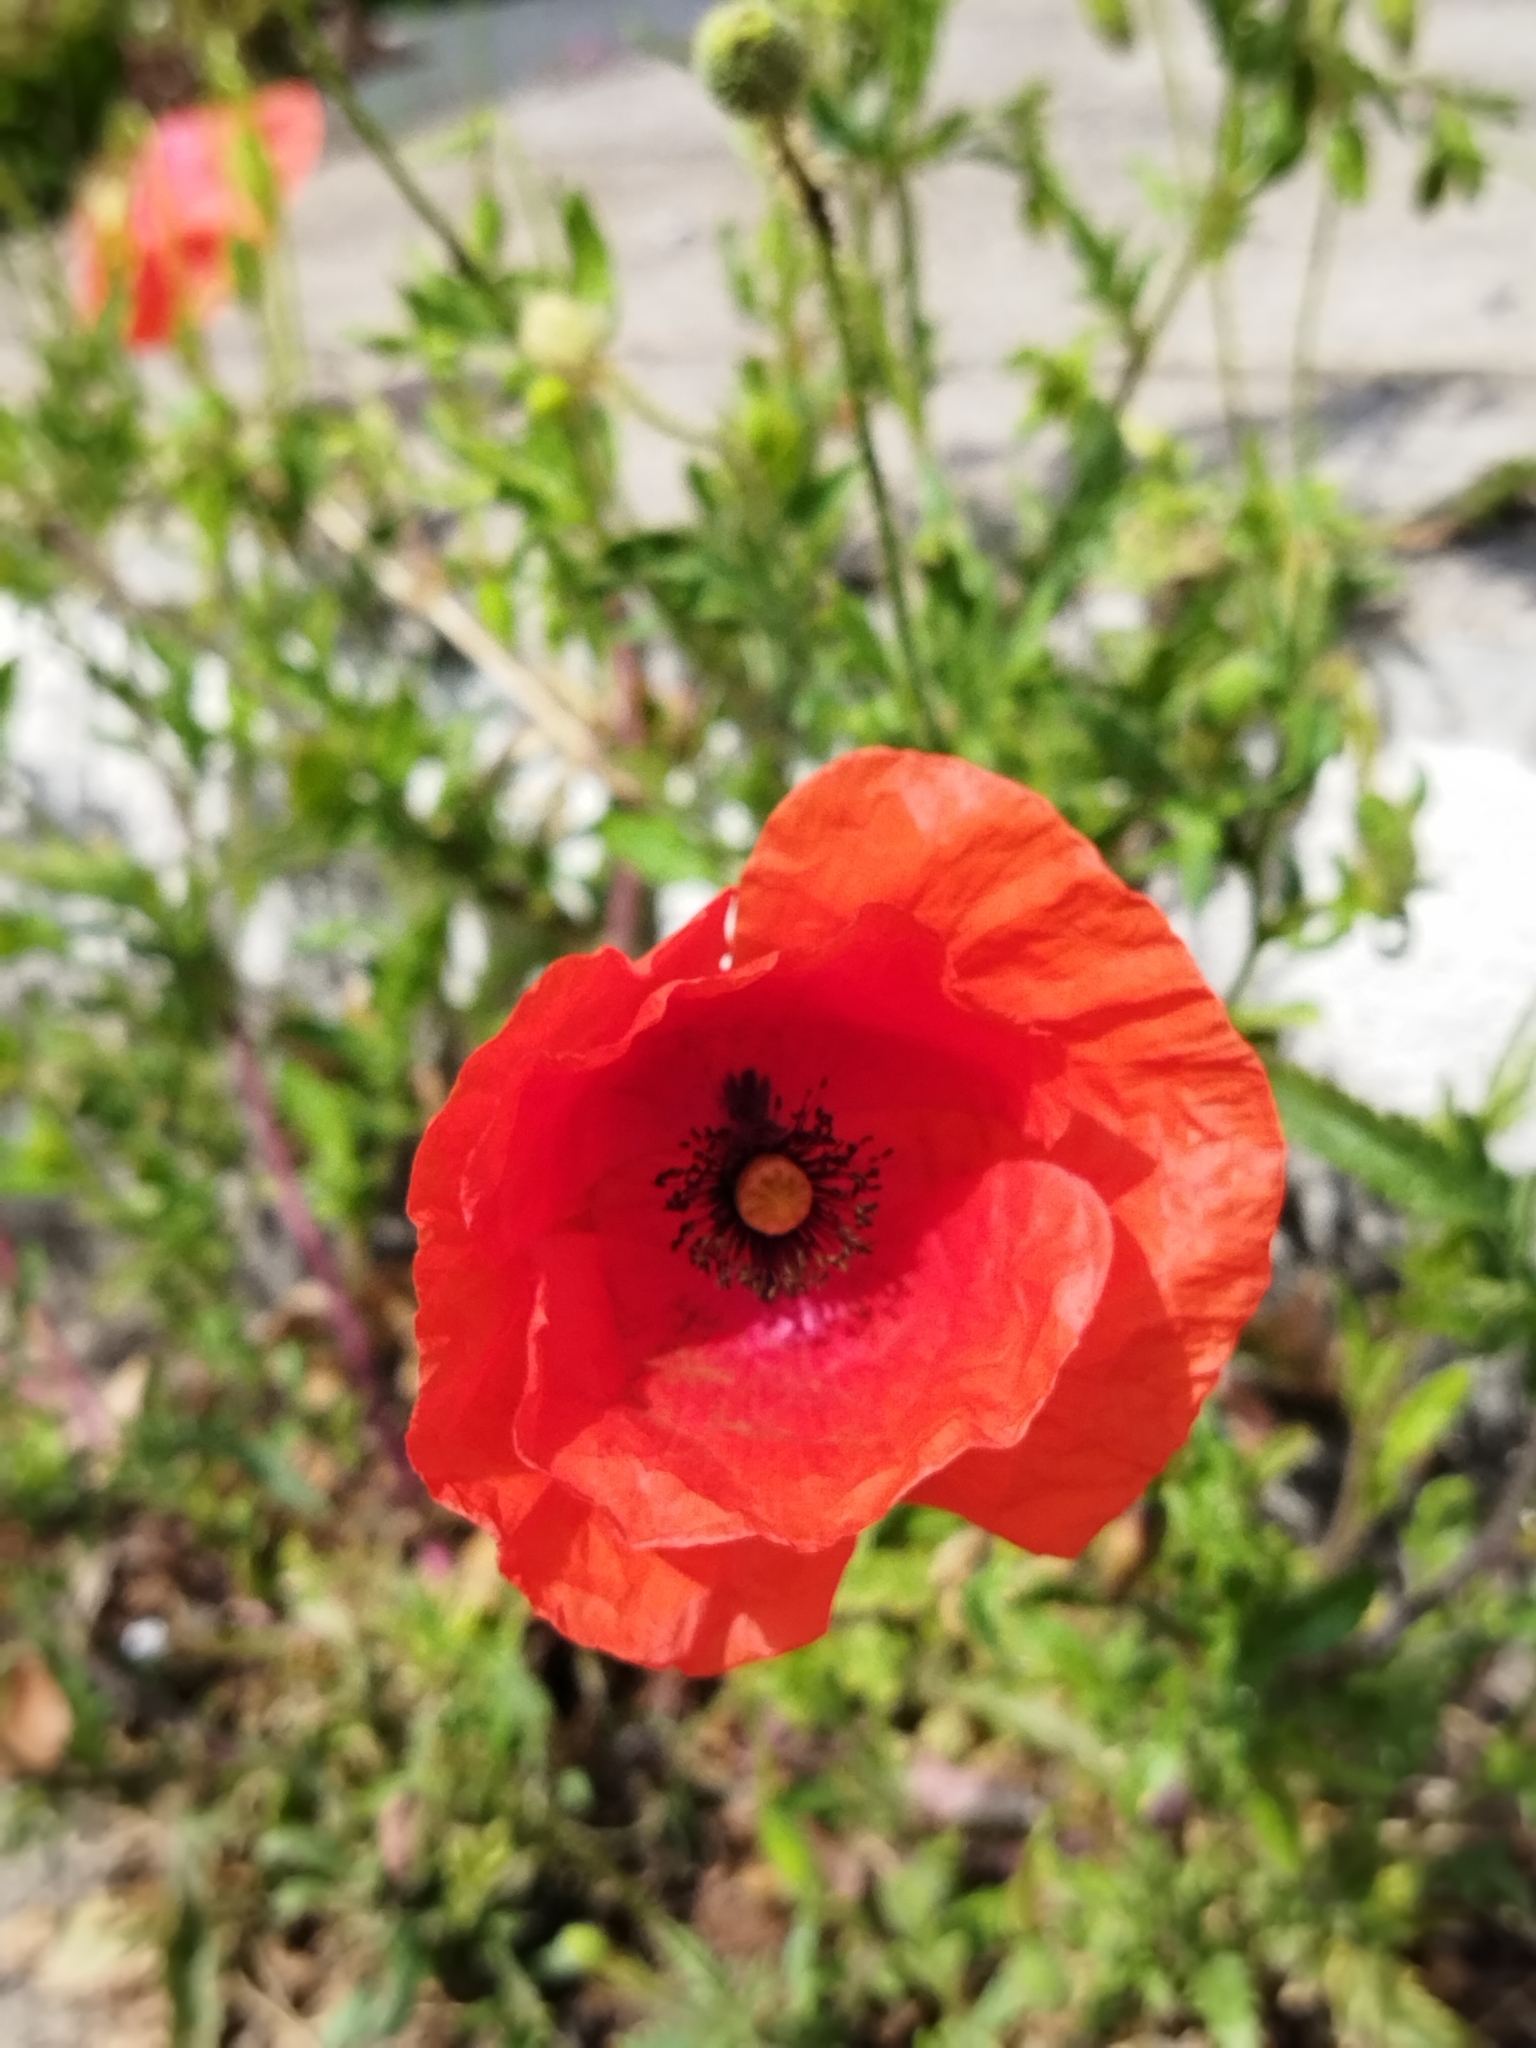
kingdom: Plantae
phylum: Tracheophyta
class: Magnoliopsida
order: Ranunculales
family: Papaveraceae
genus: Papaver
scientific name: Papaver rhoeas
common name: Corn poppy
